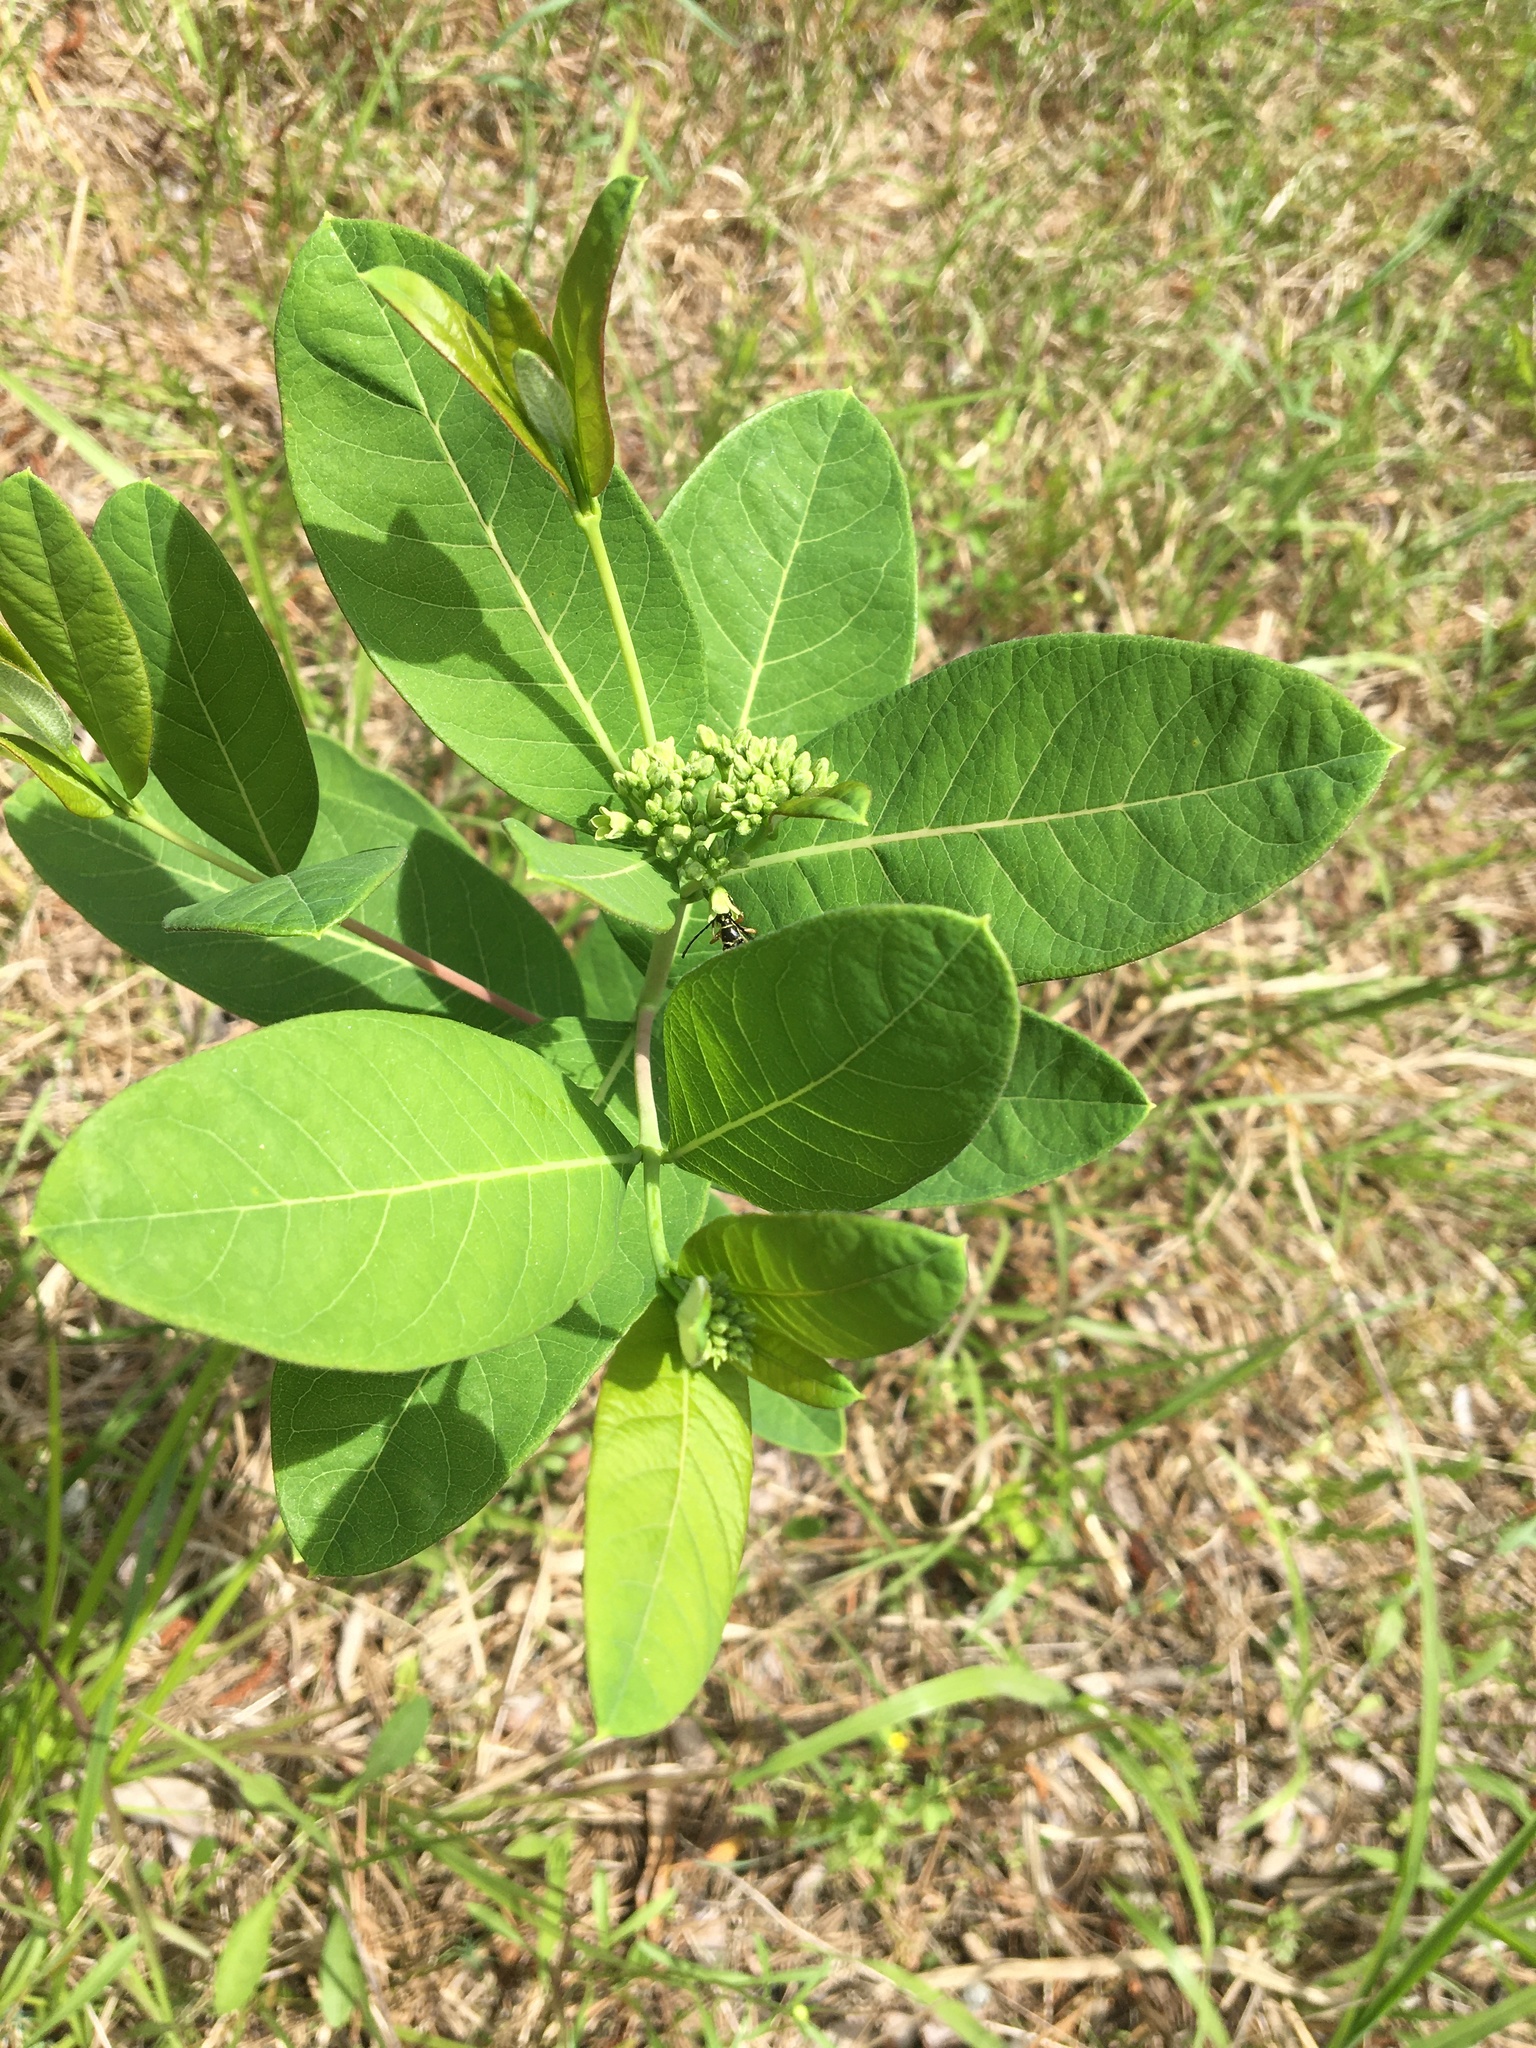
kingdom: Plantae
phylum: Tracheophyta
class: Magnoliopsida
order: Gentianales
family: Apocynaceae
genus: Apocynum
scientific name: Apocynum cannabinum
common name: Hemp dogbane
